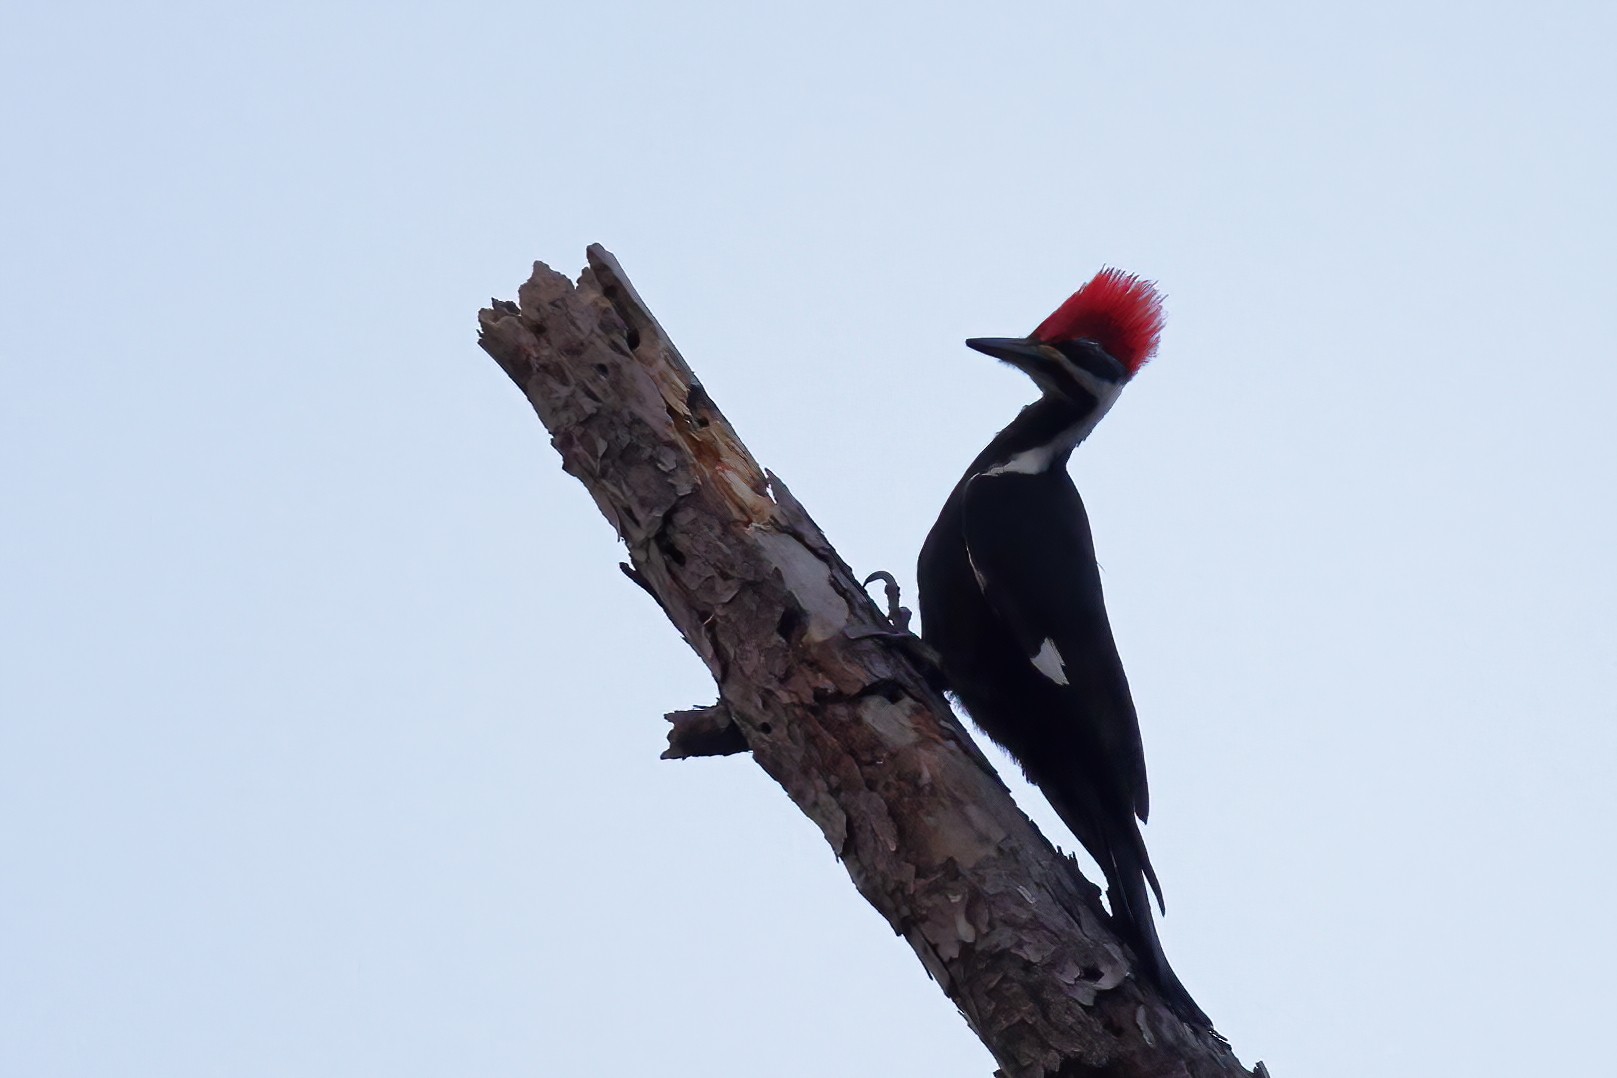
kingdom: Animalia
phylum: Chordata
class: Aves
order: Piciformes
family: Picidae
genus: Dryocopus
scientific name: Dryocopus pileatus
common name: Pileated woodpecker
